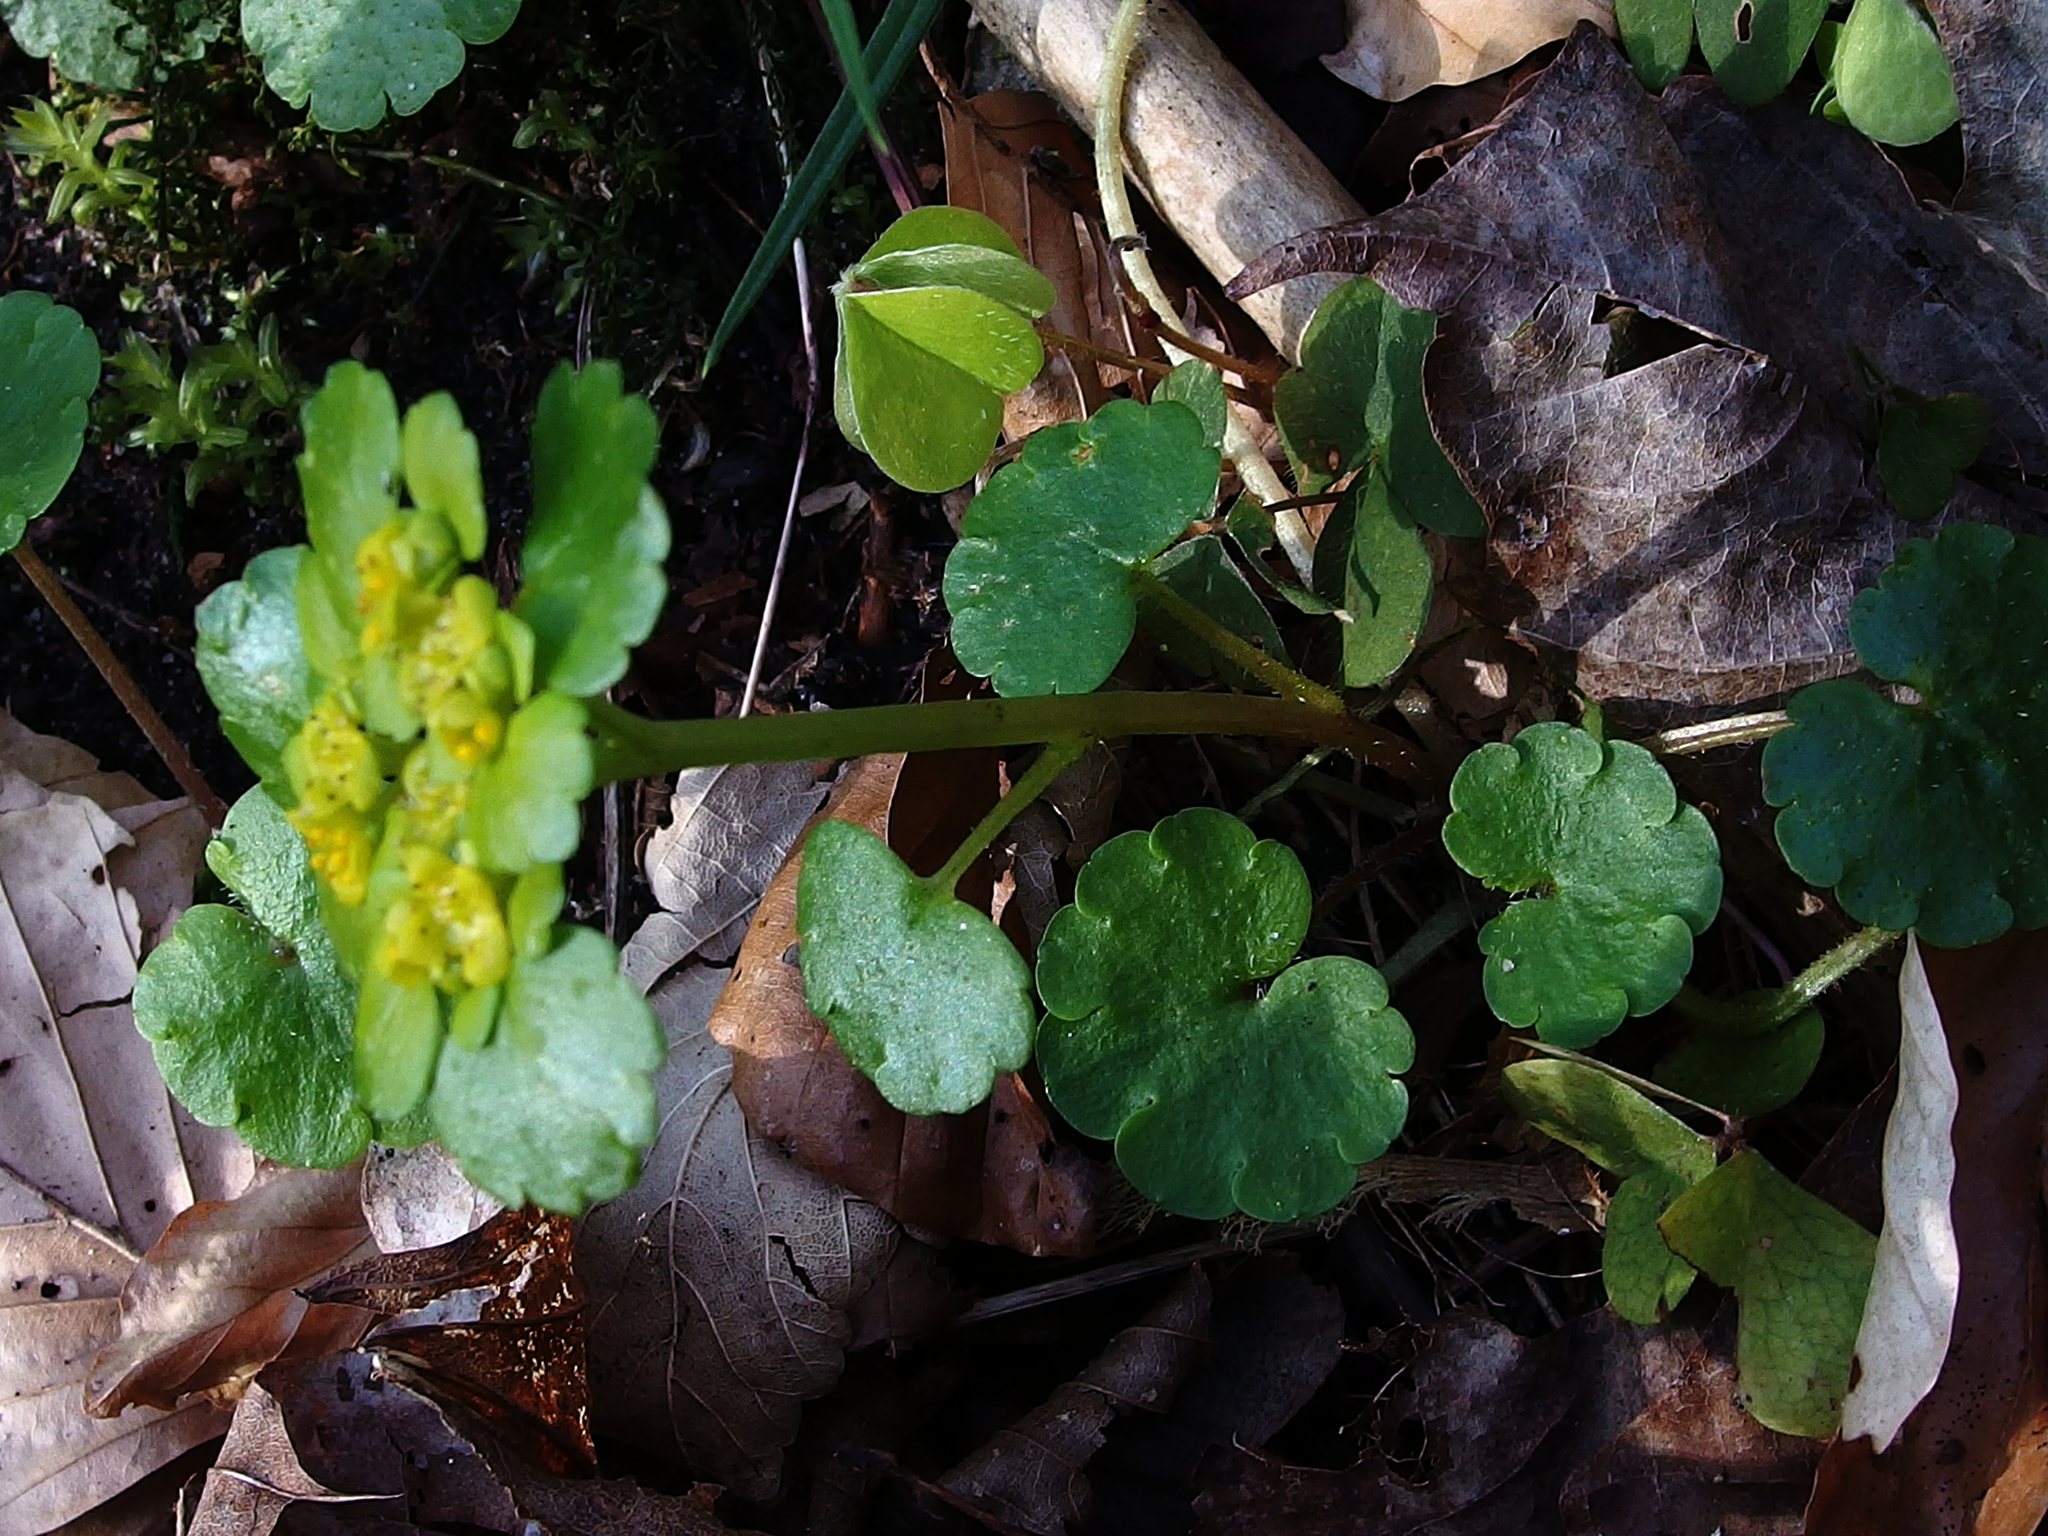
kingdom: Plantae
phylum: Tracheophyta
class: Magnoliopsida
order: Saxifragales
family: Saxifragaceae
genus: Chrysosplenium
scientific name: Chrysosplenium alternifolium
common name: Alternate-leaved golden-saxifrage
